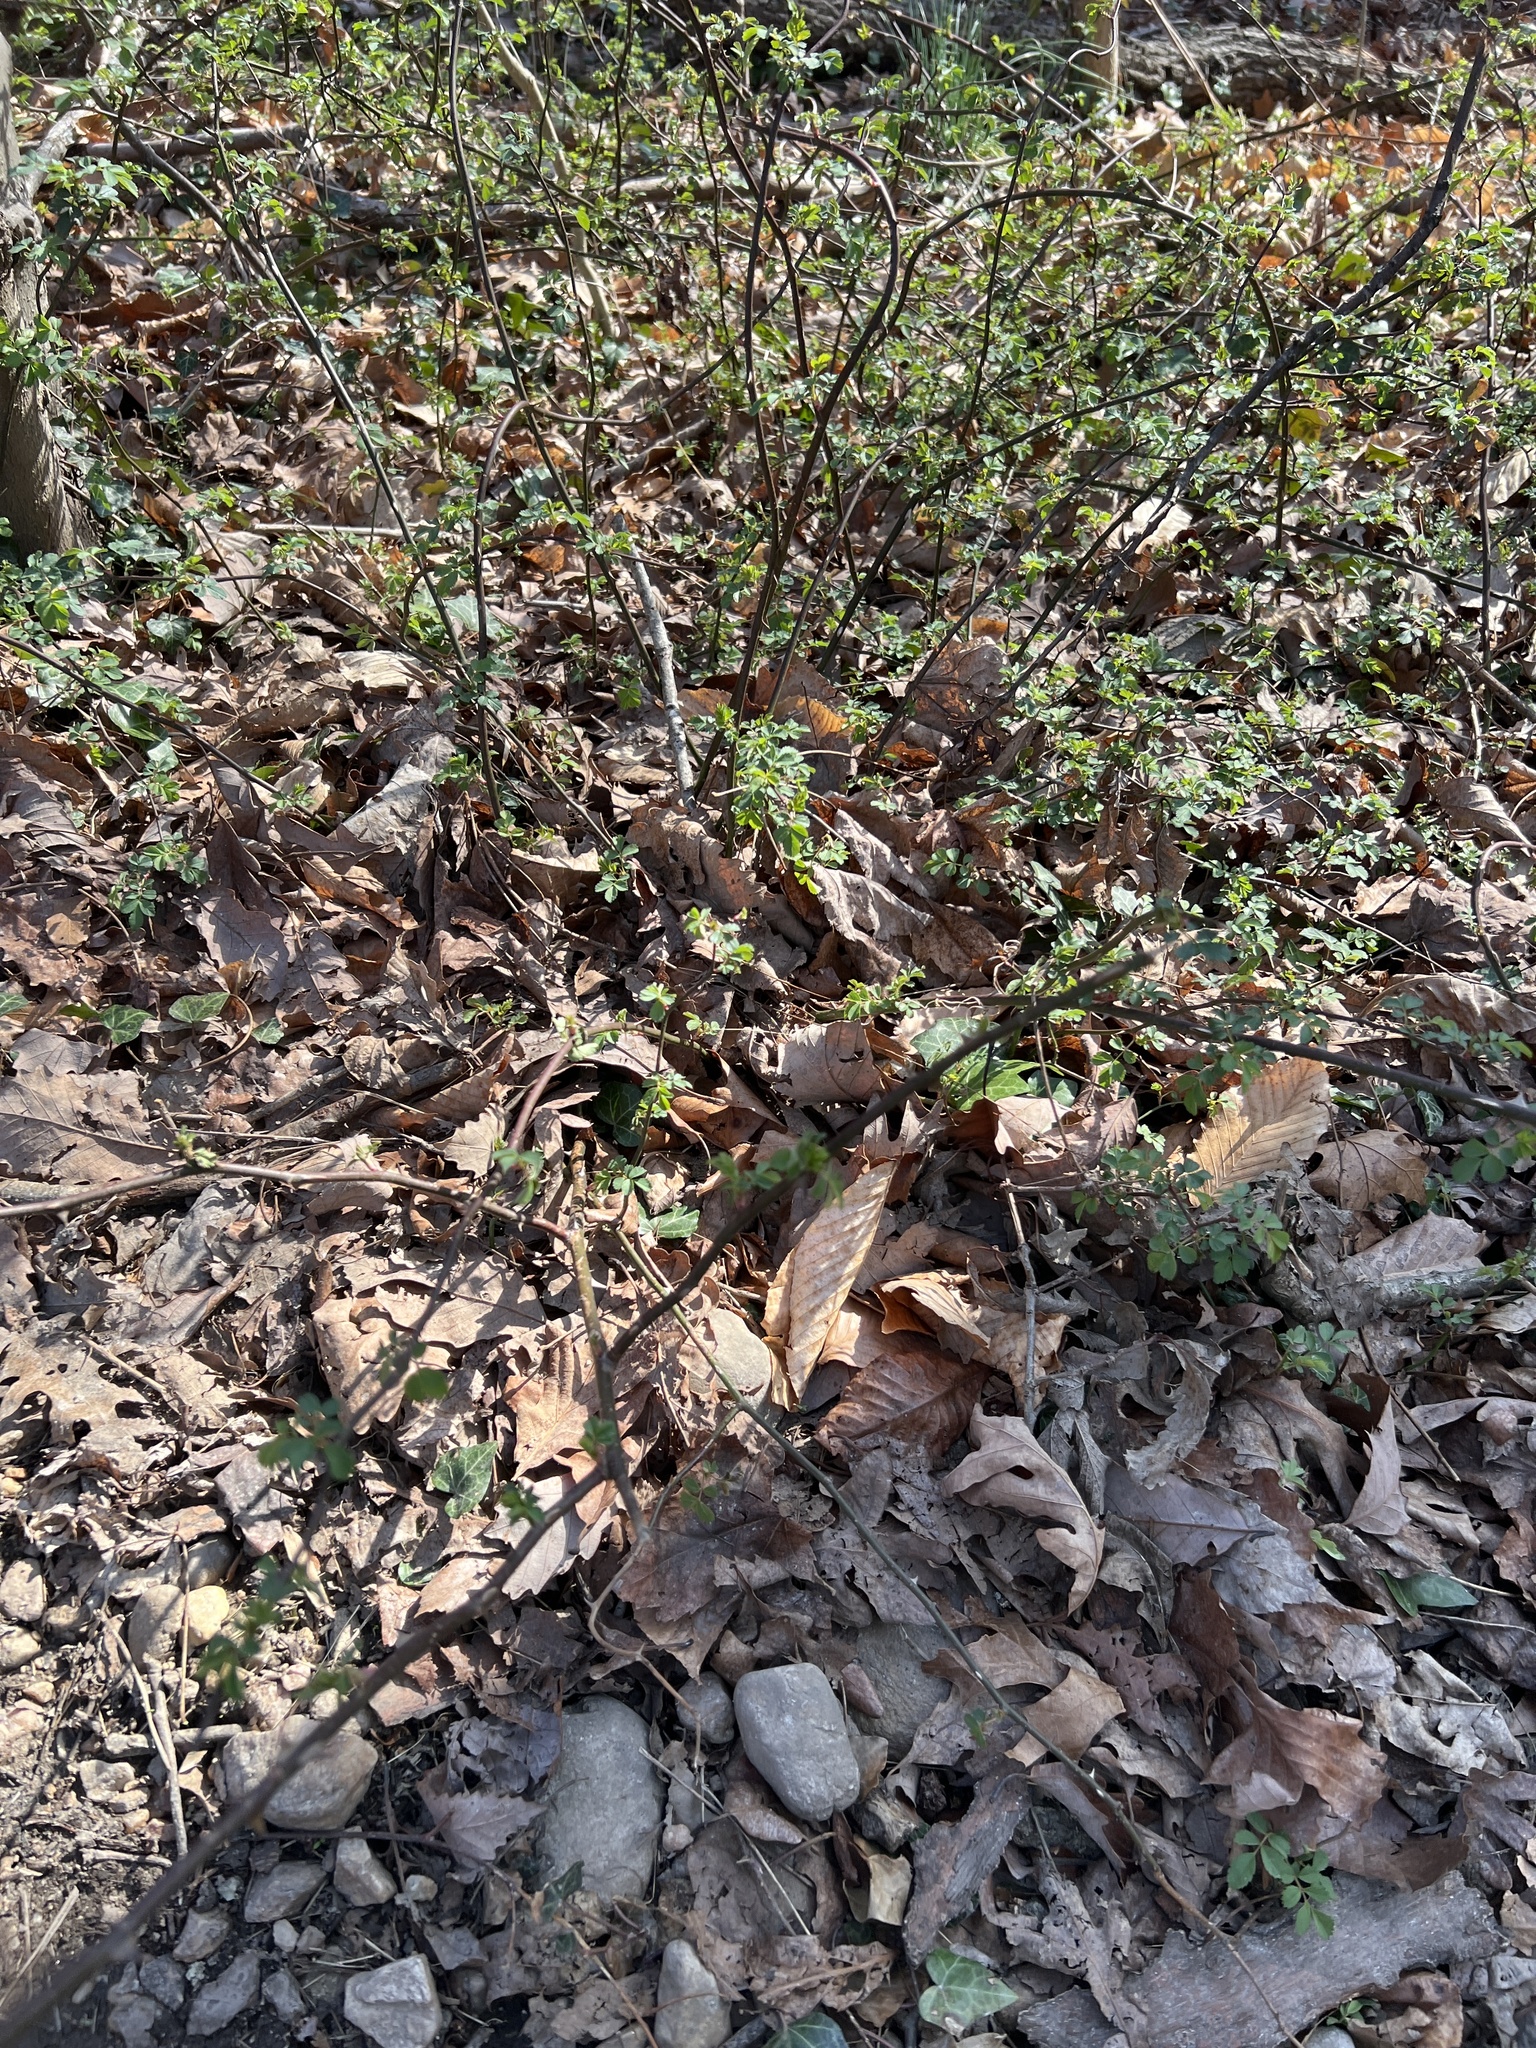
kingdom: Plantae
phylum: Tracheophyta
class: Magnoliopsida
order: Rosales
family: Rosaceae
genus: Rosa
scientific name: Rosa multiflora
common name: Multiflora rose
